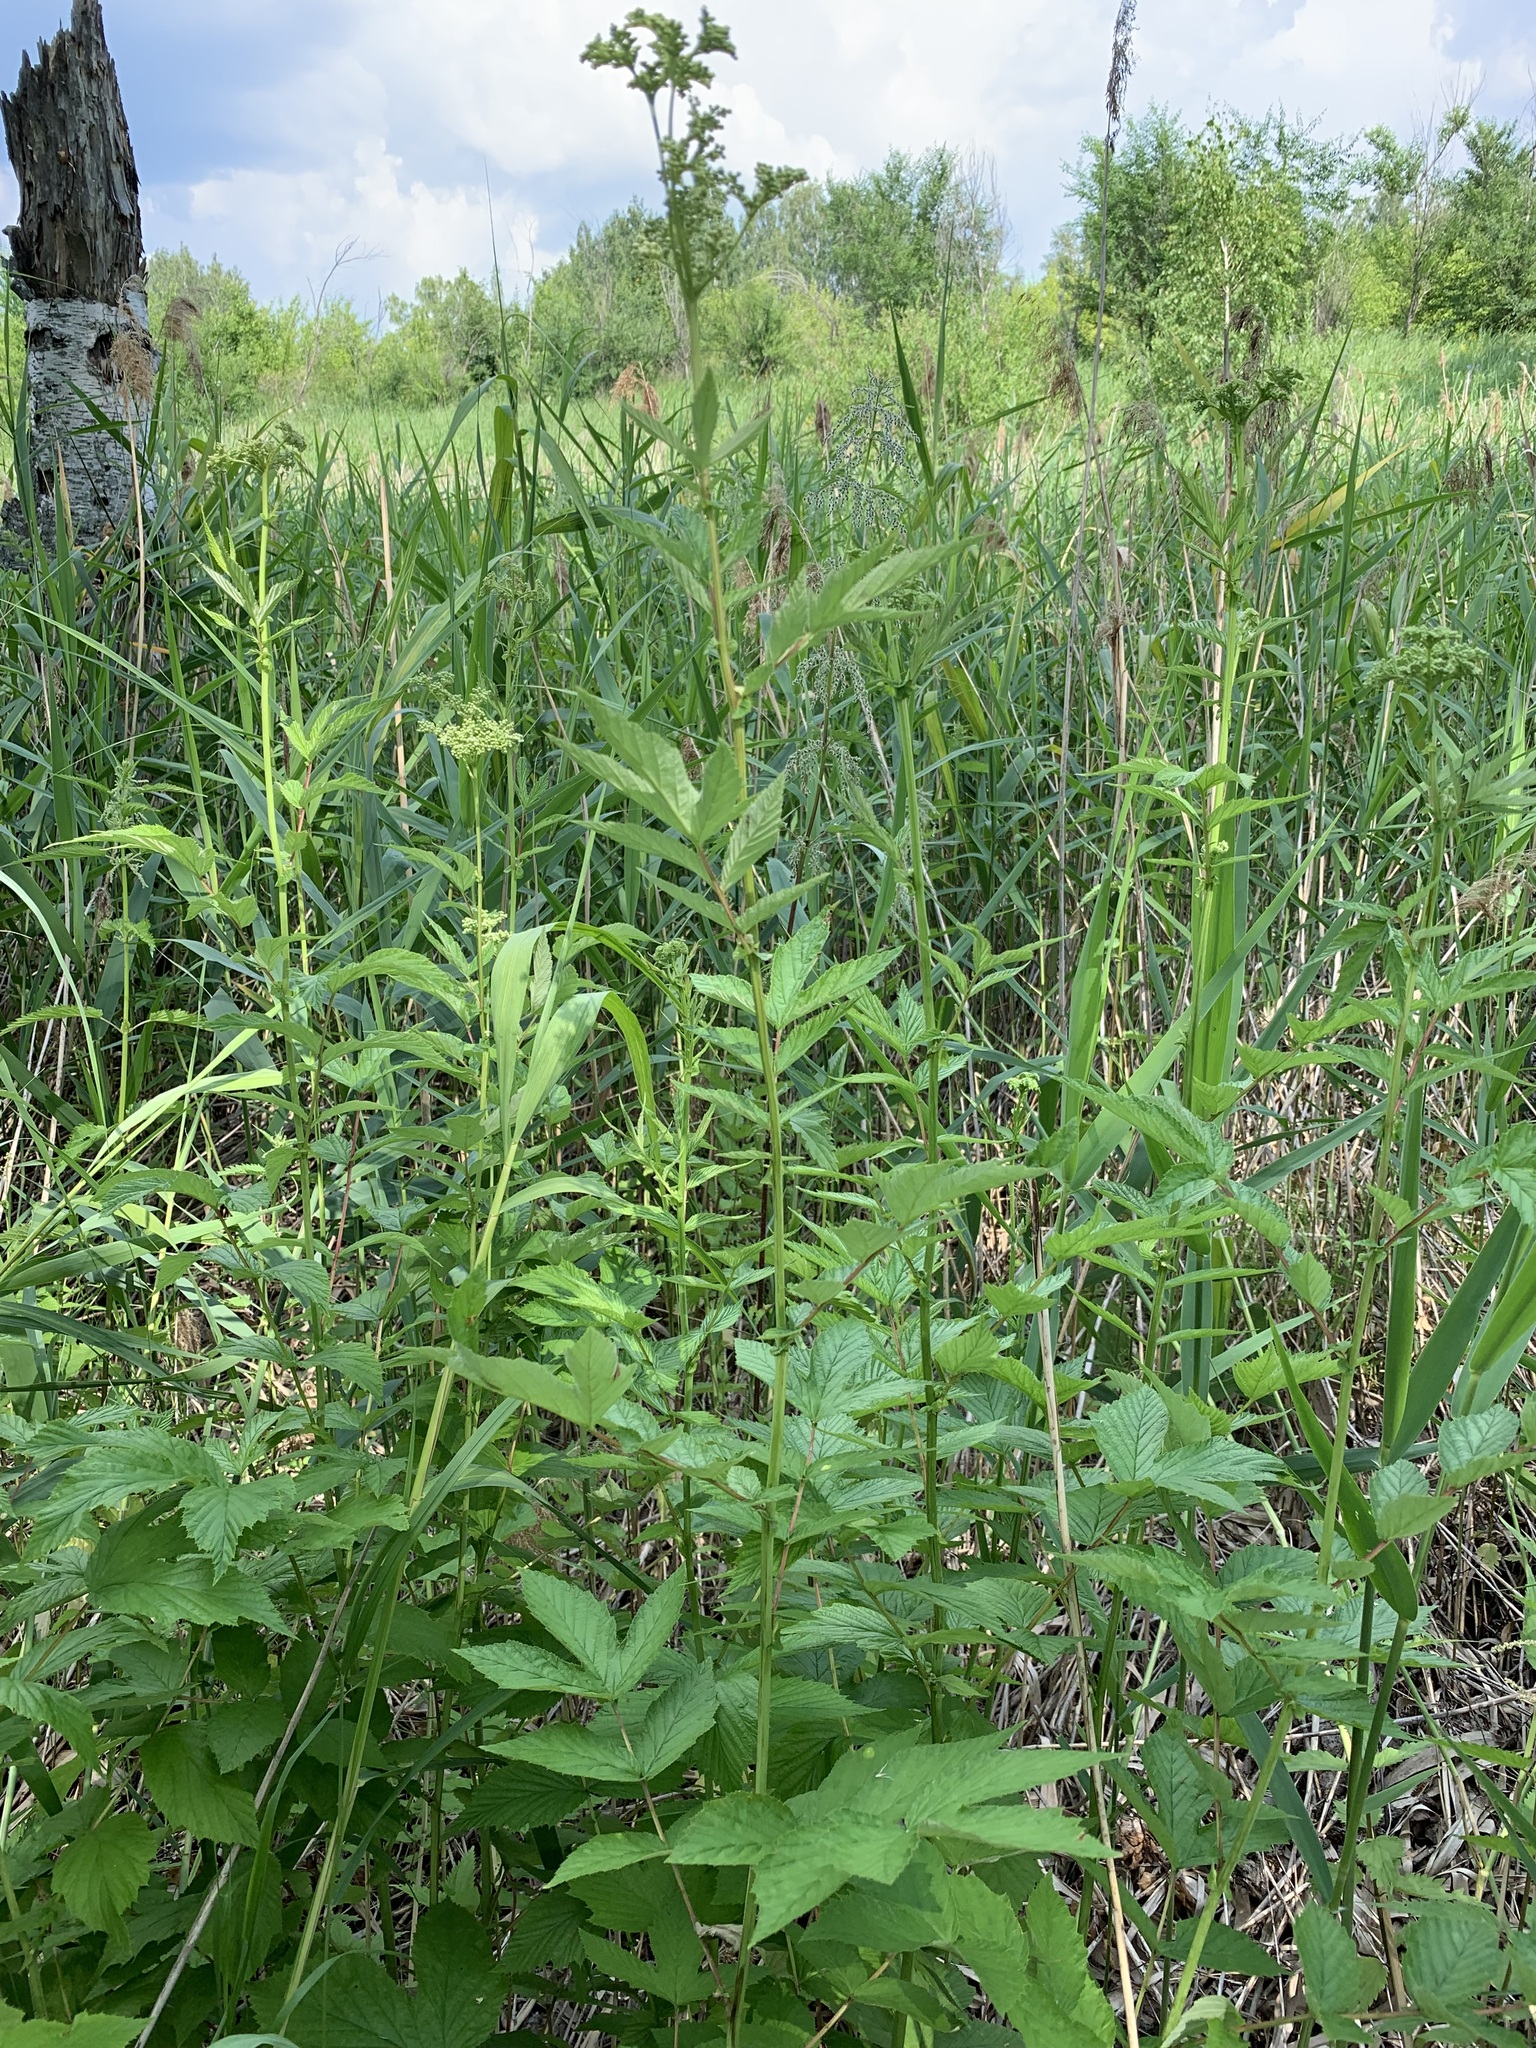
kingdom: Plantae
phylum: Tracheophyta
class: Magnoliopsida
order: Rosales
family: Rosaceae
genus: Filipendula
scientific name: Filipendula ulmaria
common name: Meadowsweet
